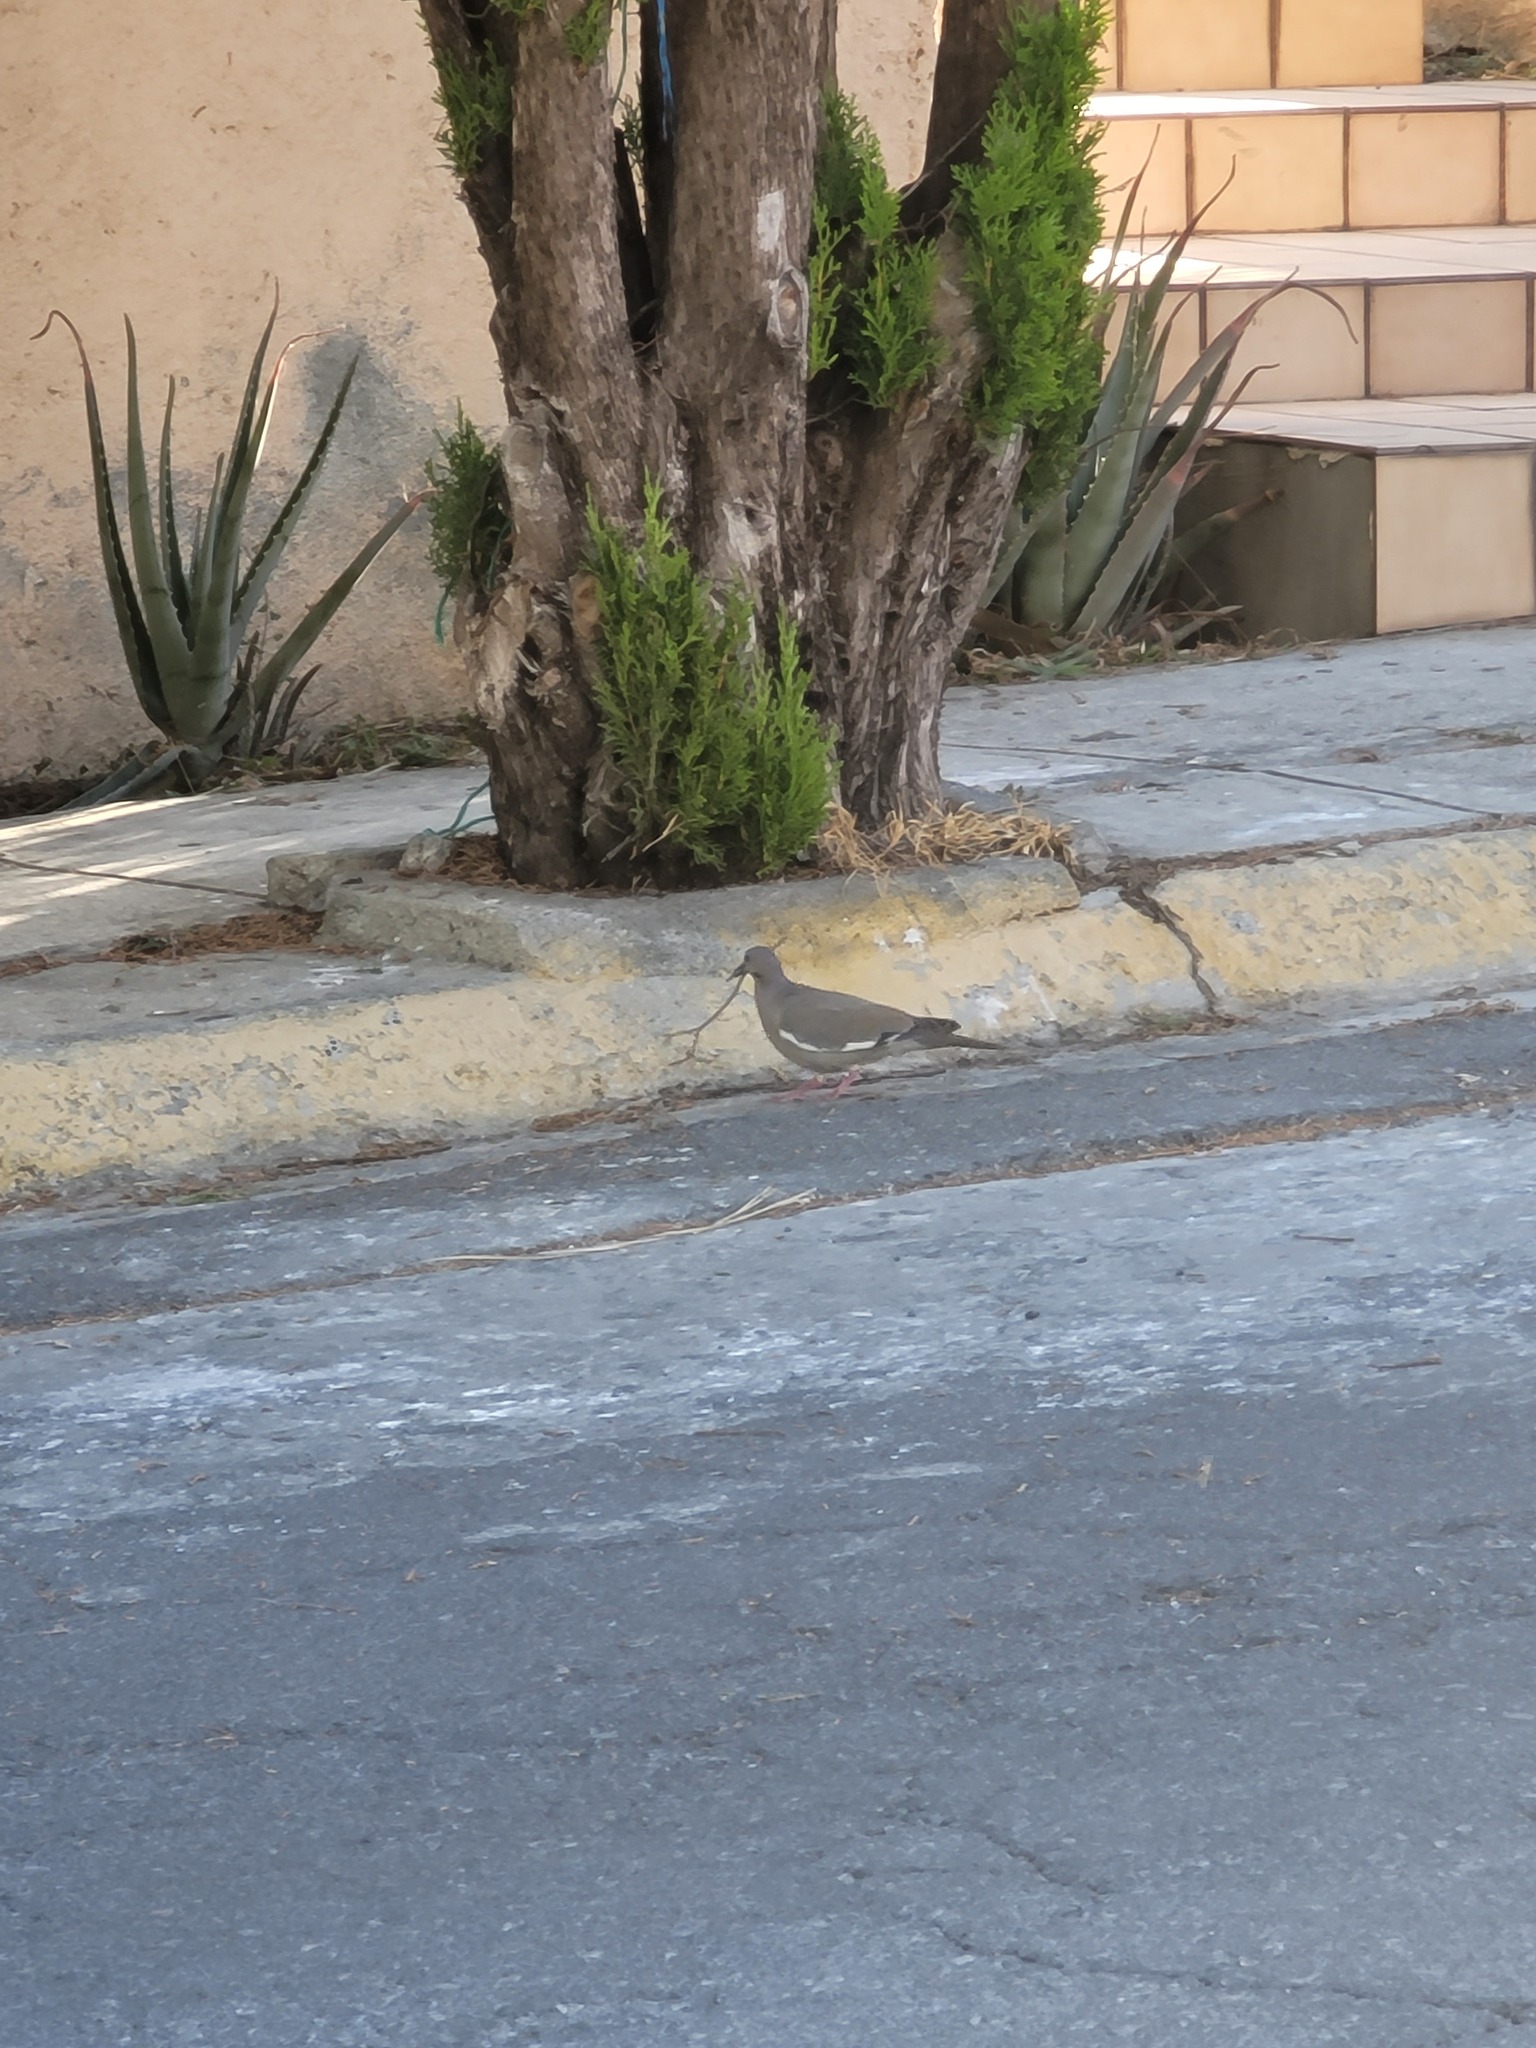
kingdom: Animalia
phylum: Chordata
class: Aves
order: Columbiformes
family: Columbidae
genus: Zenaida
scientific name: Zenaida asiatica
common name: White-winged dove
